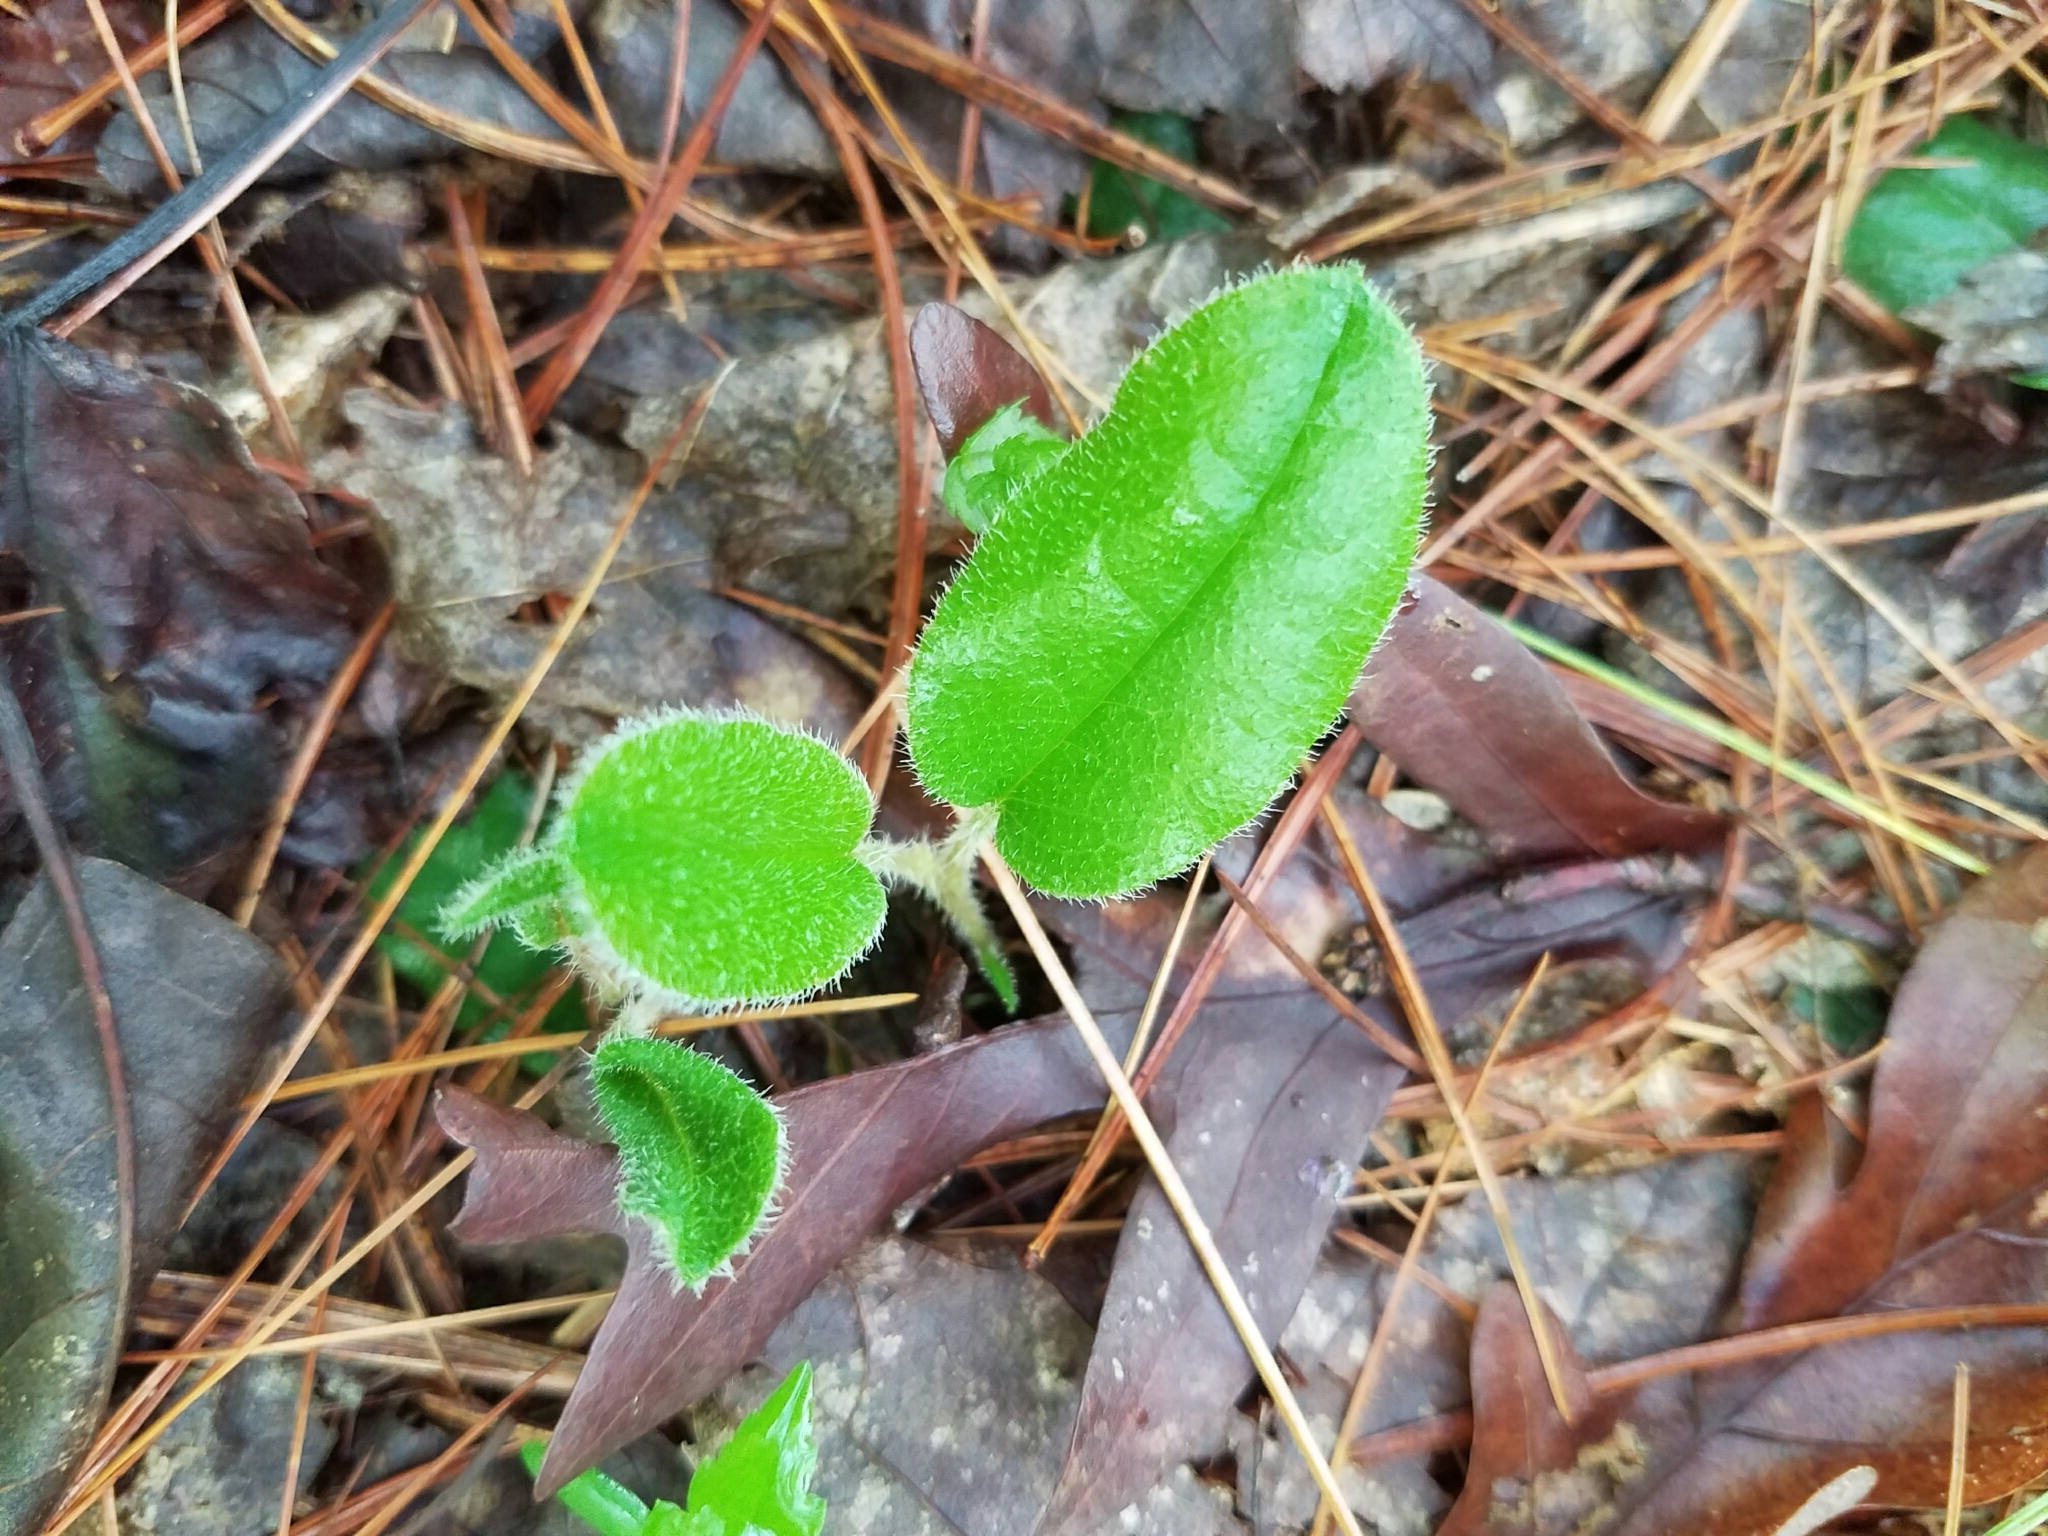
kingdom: Plantae
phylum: Tracheophyta
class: Magnoliopsida
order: Ericales
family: Ericaceae
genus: Epigaea
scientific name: Epigaea repens
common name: Gravelroot
